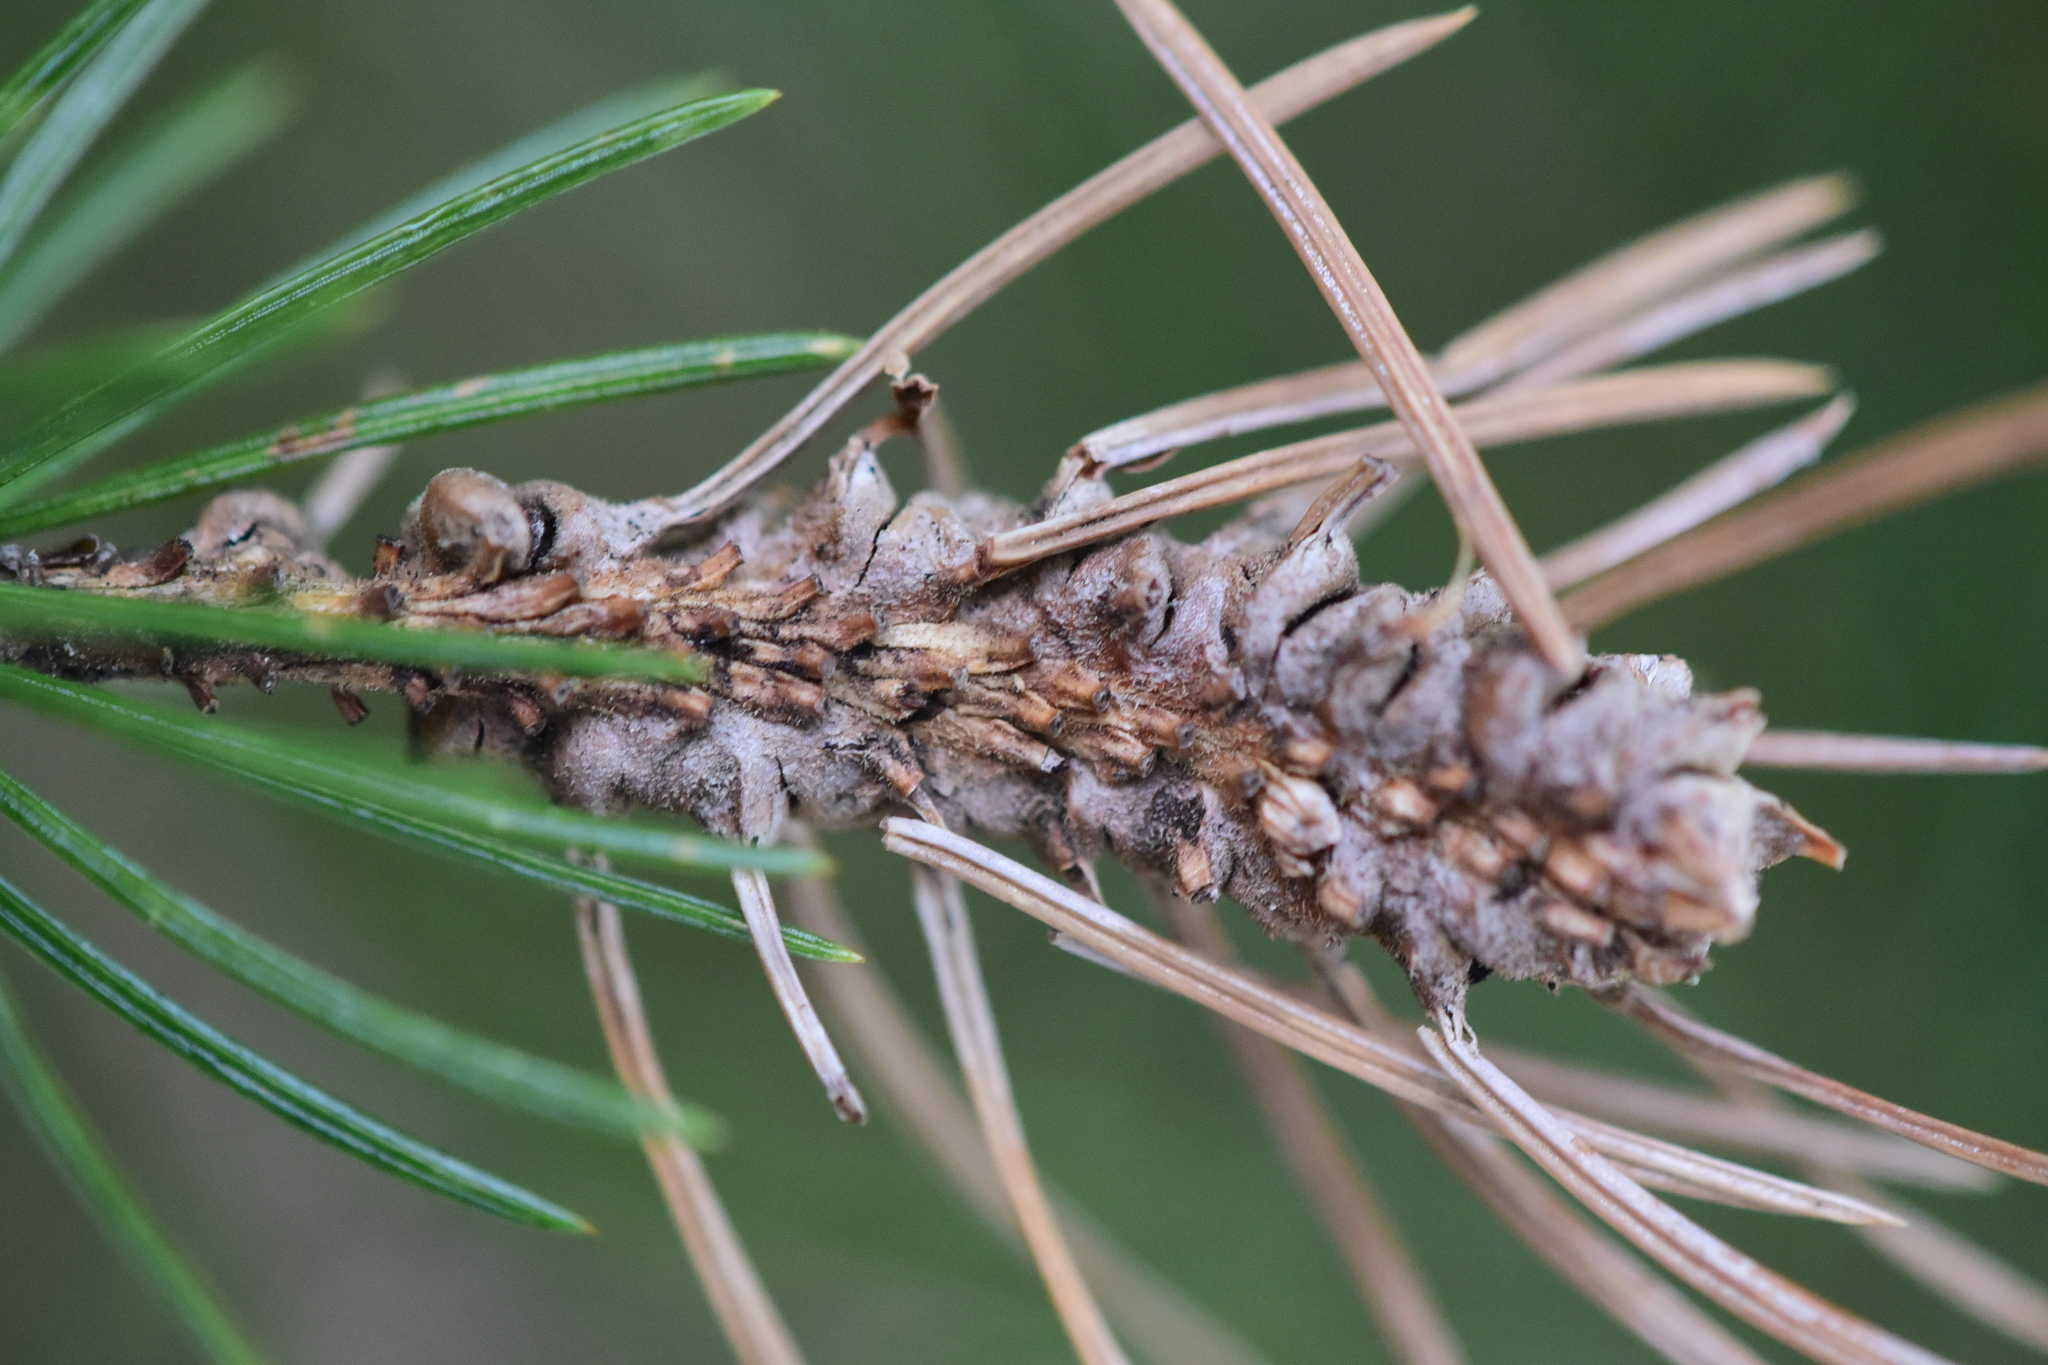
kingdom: Animalia
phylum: Arthropoda
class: Insecta
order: Hemiptera
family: Adelgidae
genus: Adelges
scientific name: Adelges cooleyi
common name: Cooley spruce gall adelgid
